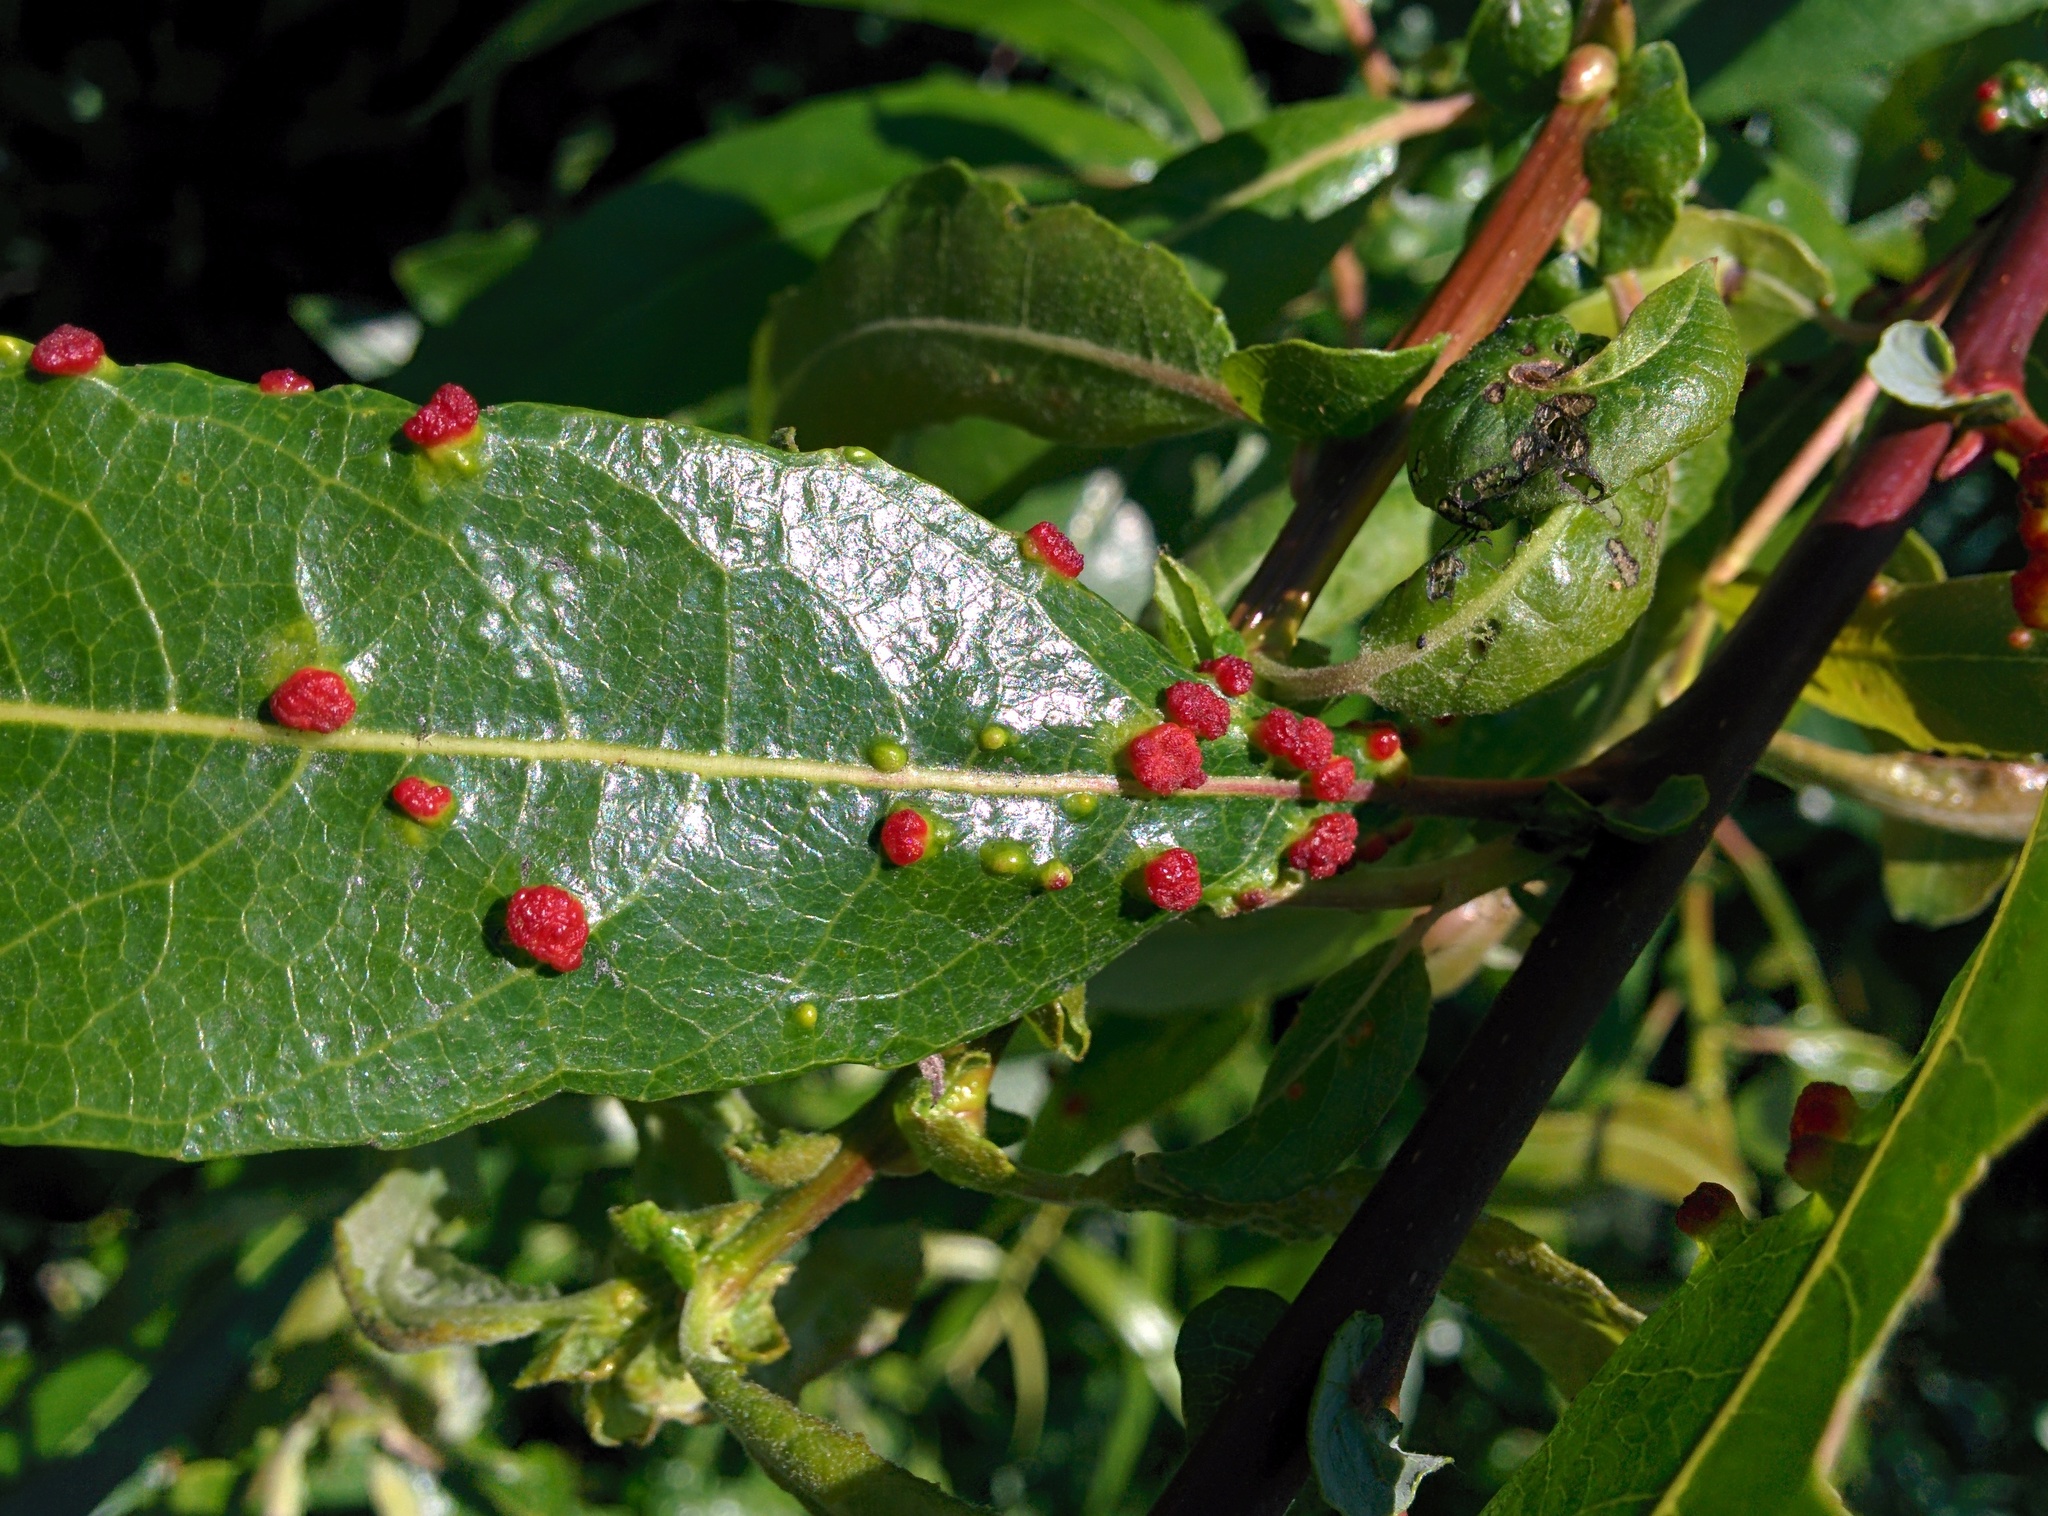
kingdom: Animalia
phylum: Arthropoda
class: Arachnida
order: Trombidiformes
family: Eriophyidae
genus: Aculus
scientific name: Aculus tetanothrix
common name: Willow bead gall mite
